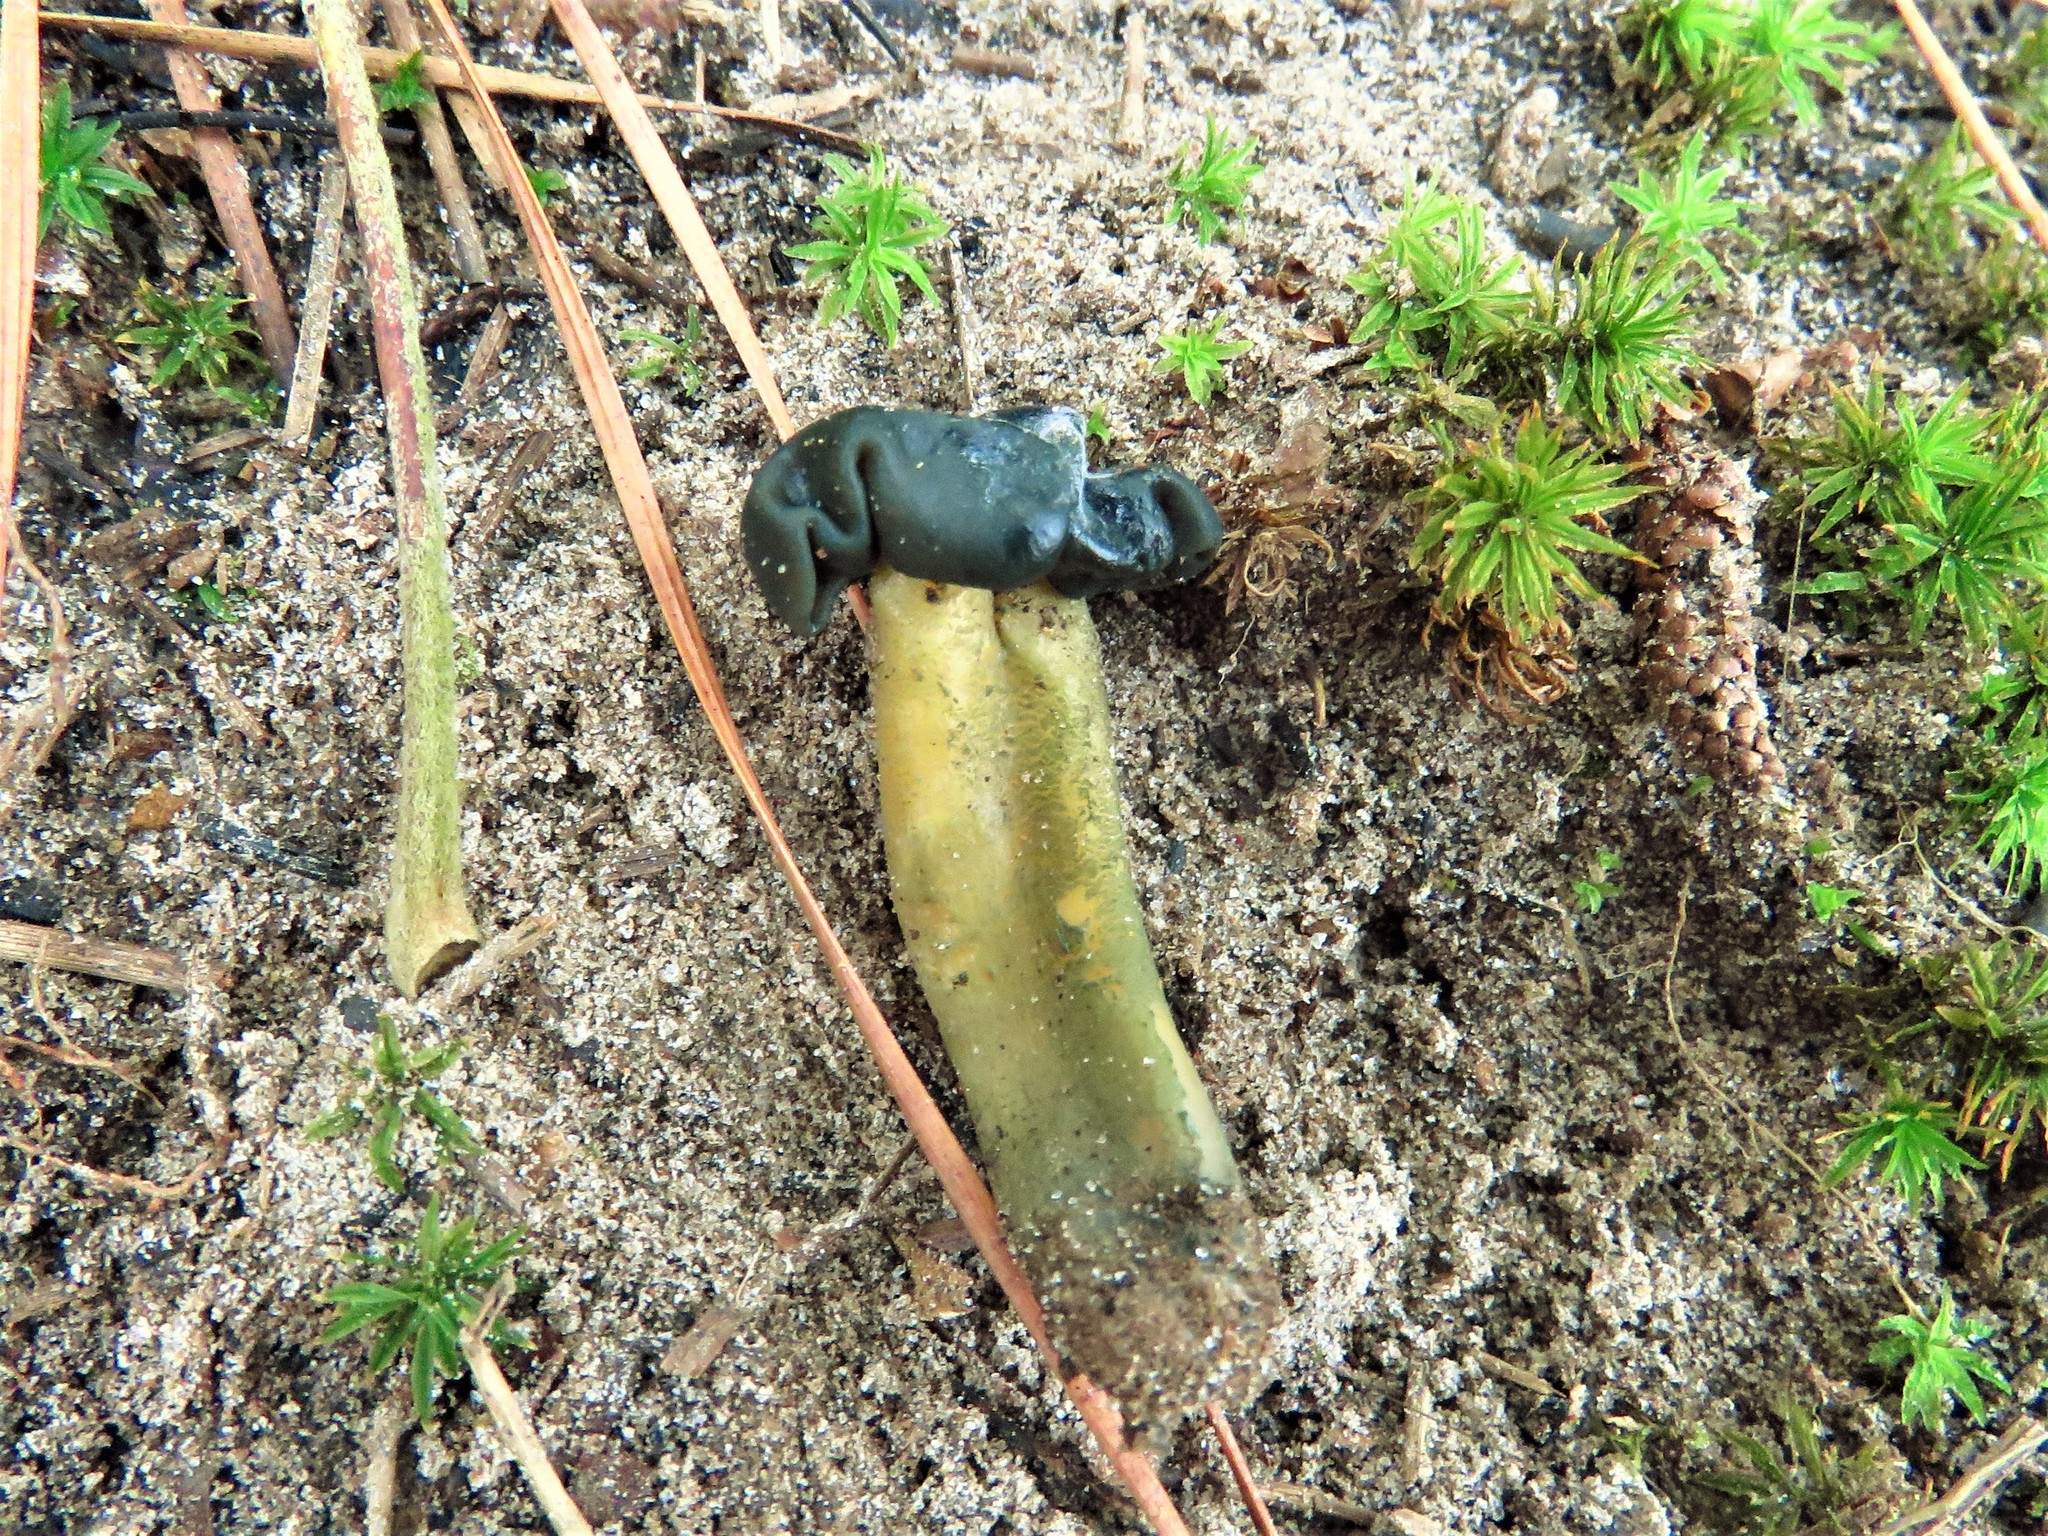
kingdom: Fungi
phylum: Ascomycota
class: Leotiomycetes
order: Leotiales
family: Leotiaceae
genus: Leotia
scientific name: Leotia lubrica
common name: Jellybaby
